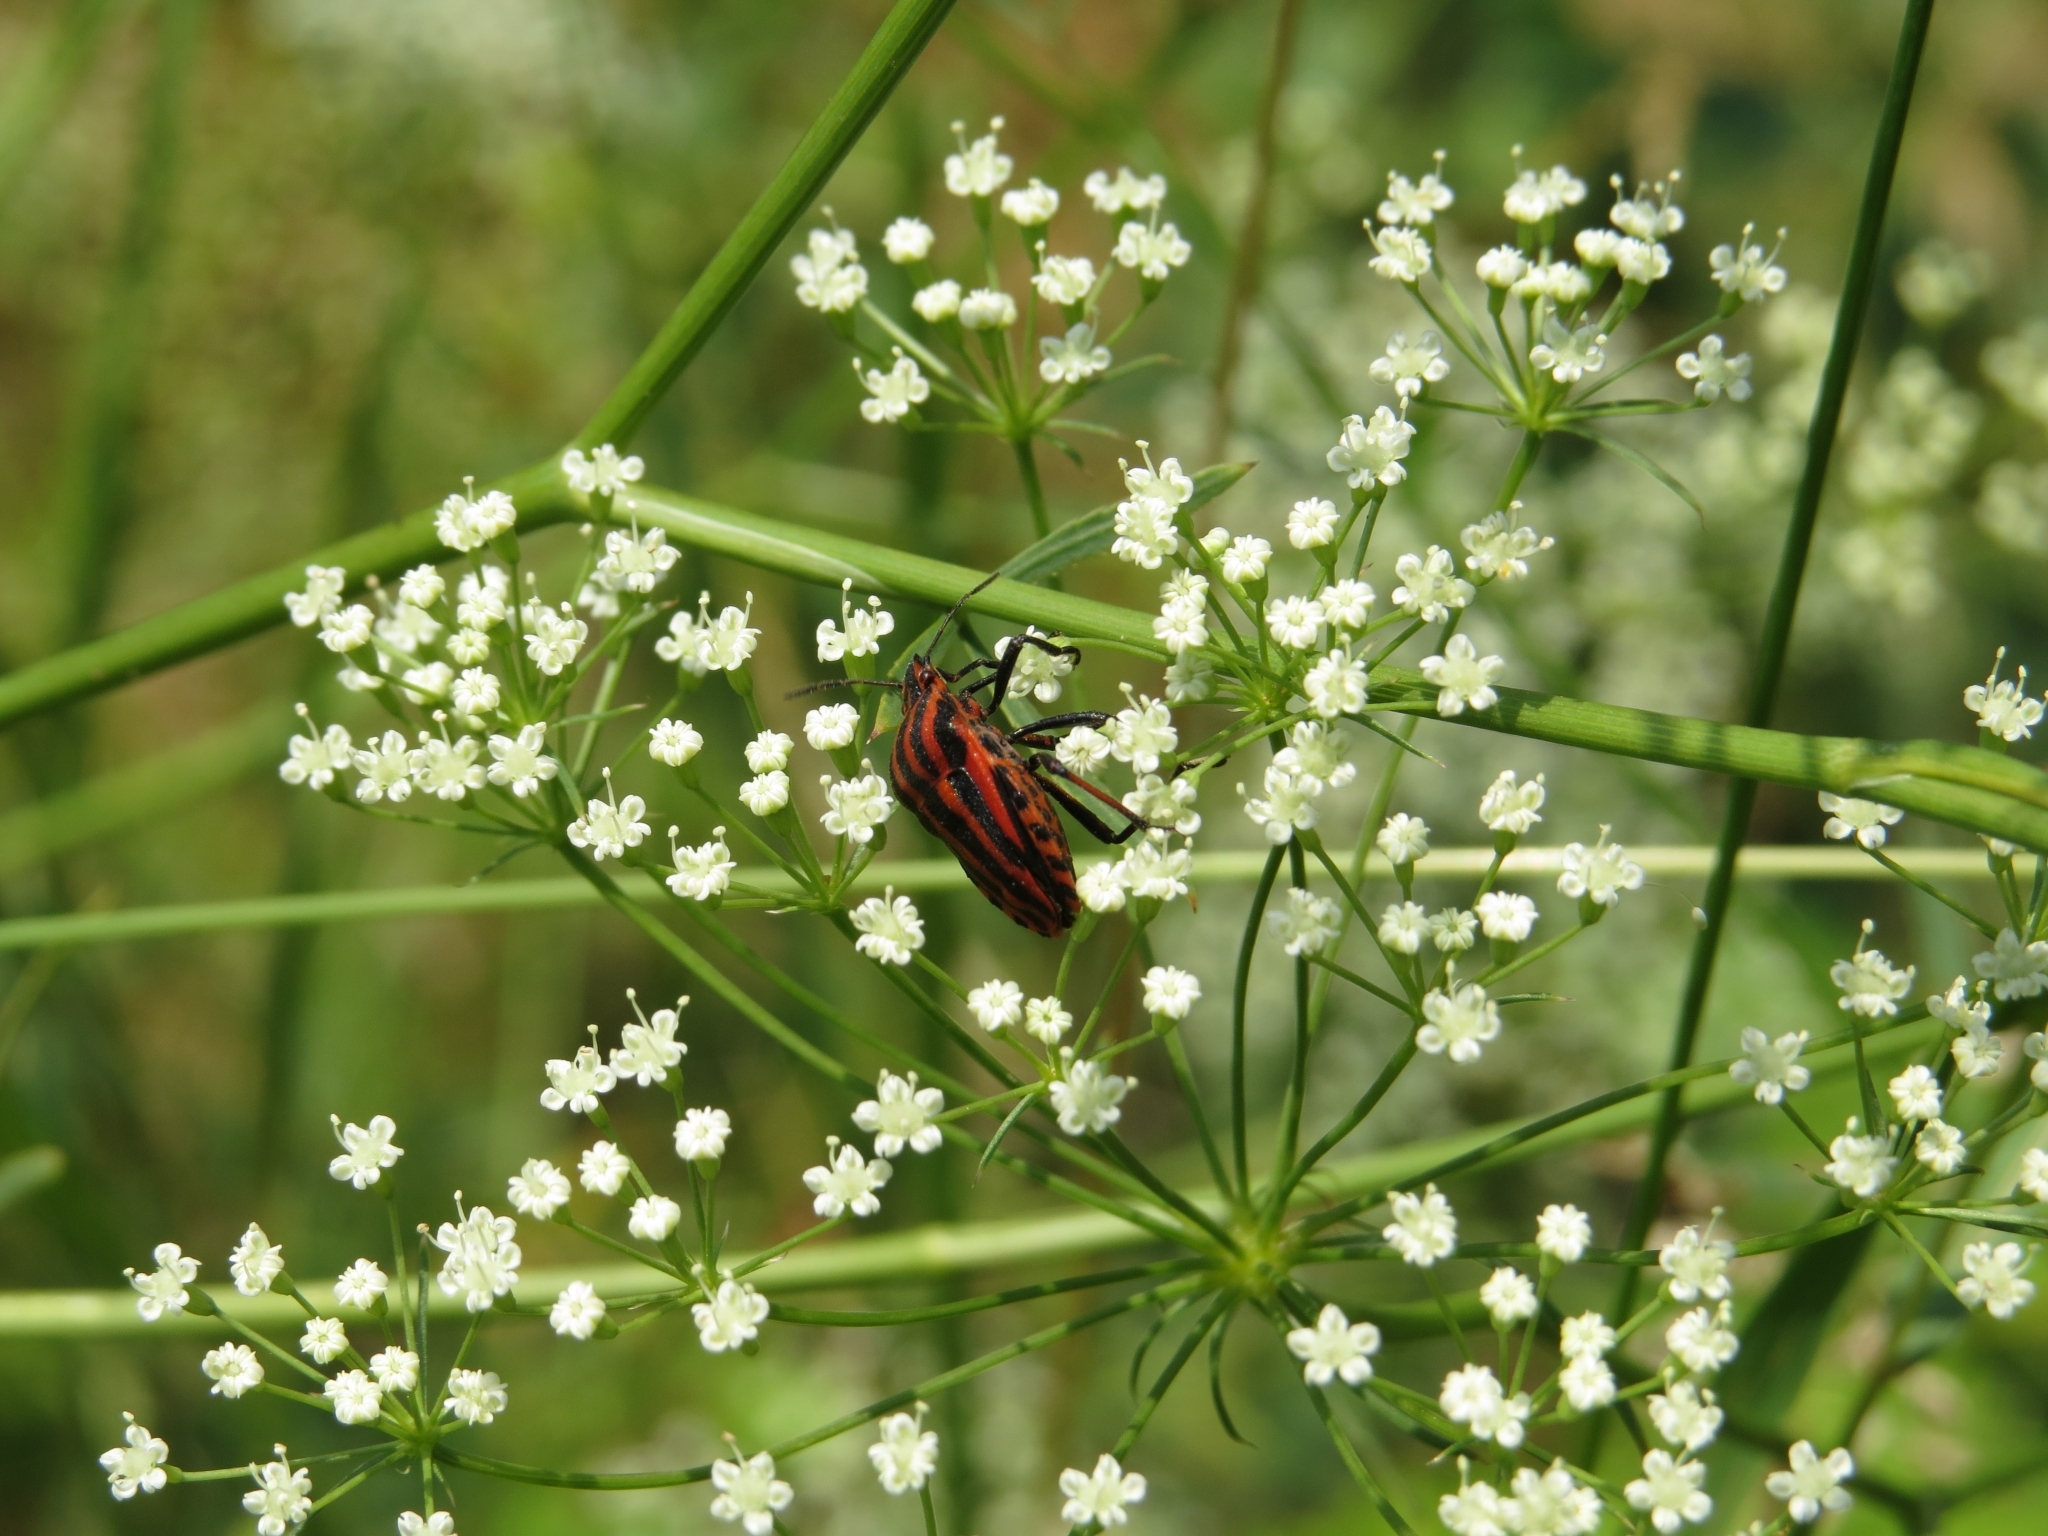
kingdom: Animalia
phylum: Arthropoda
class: Insecta
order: Hemiptera
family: Pentatomidae
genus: Graphosoma
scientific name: Graphosoma italicum
